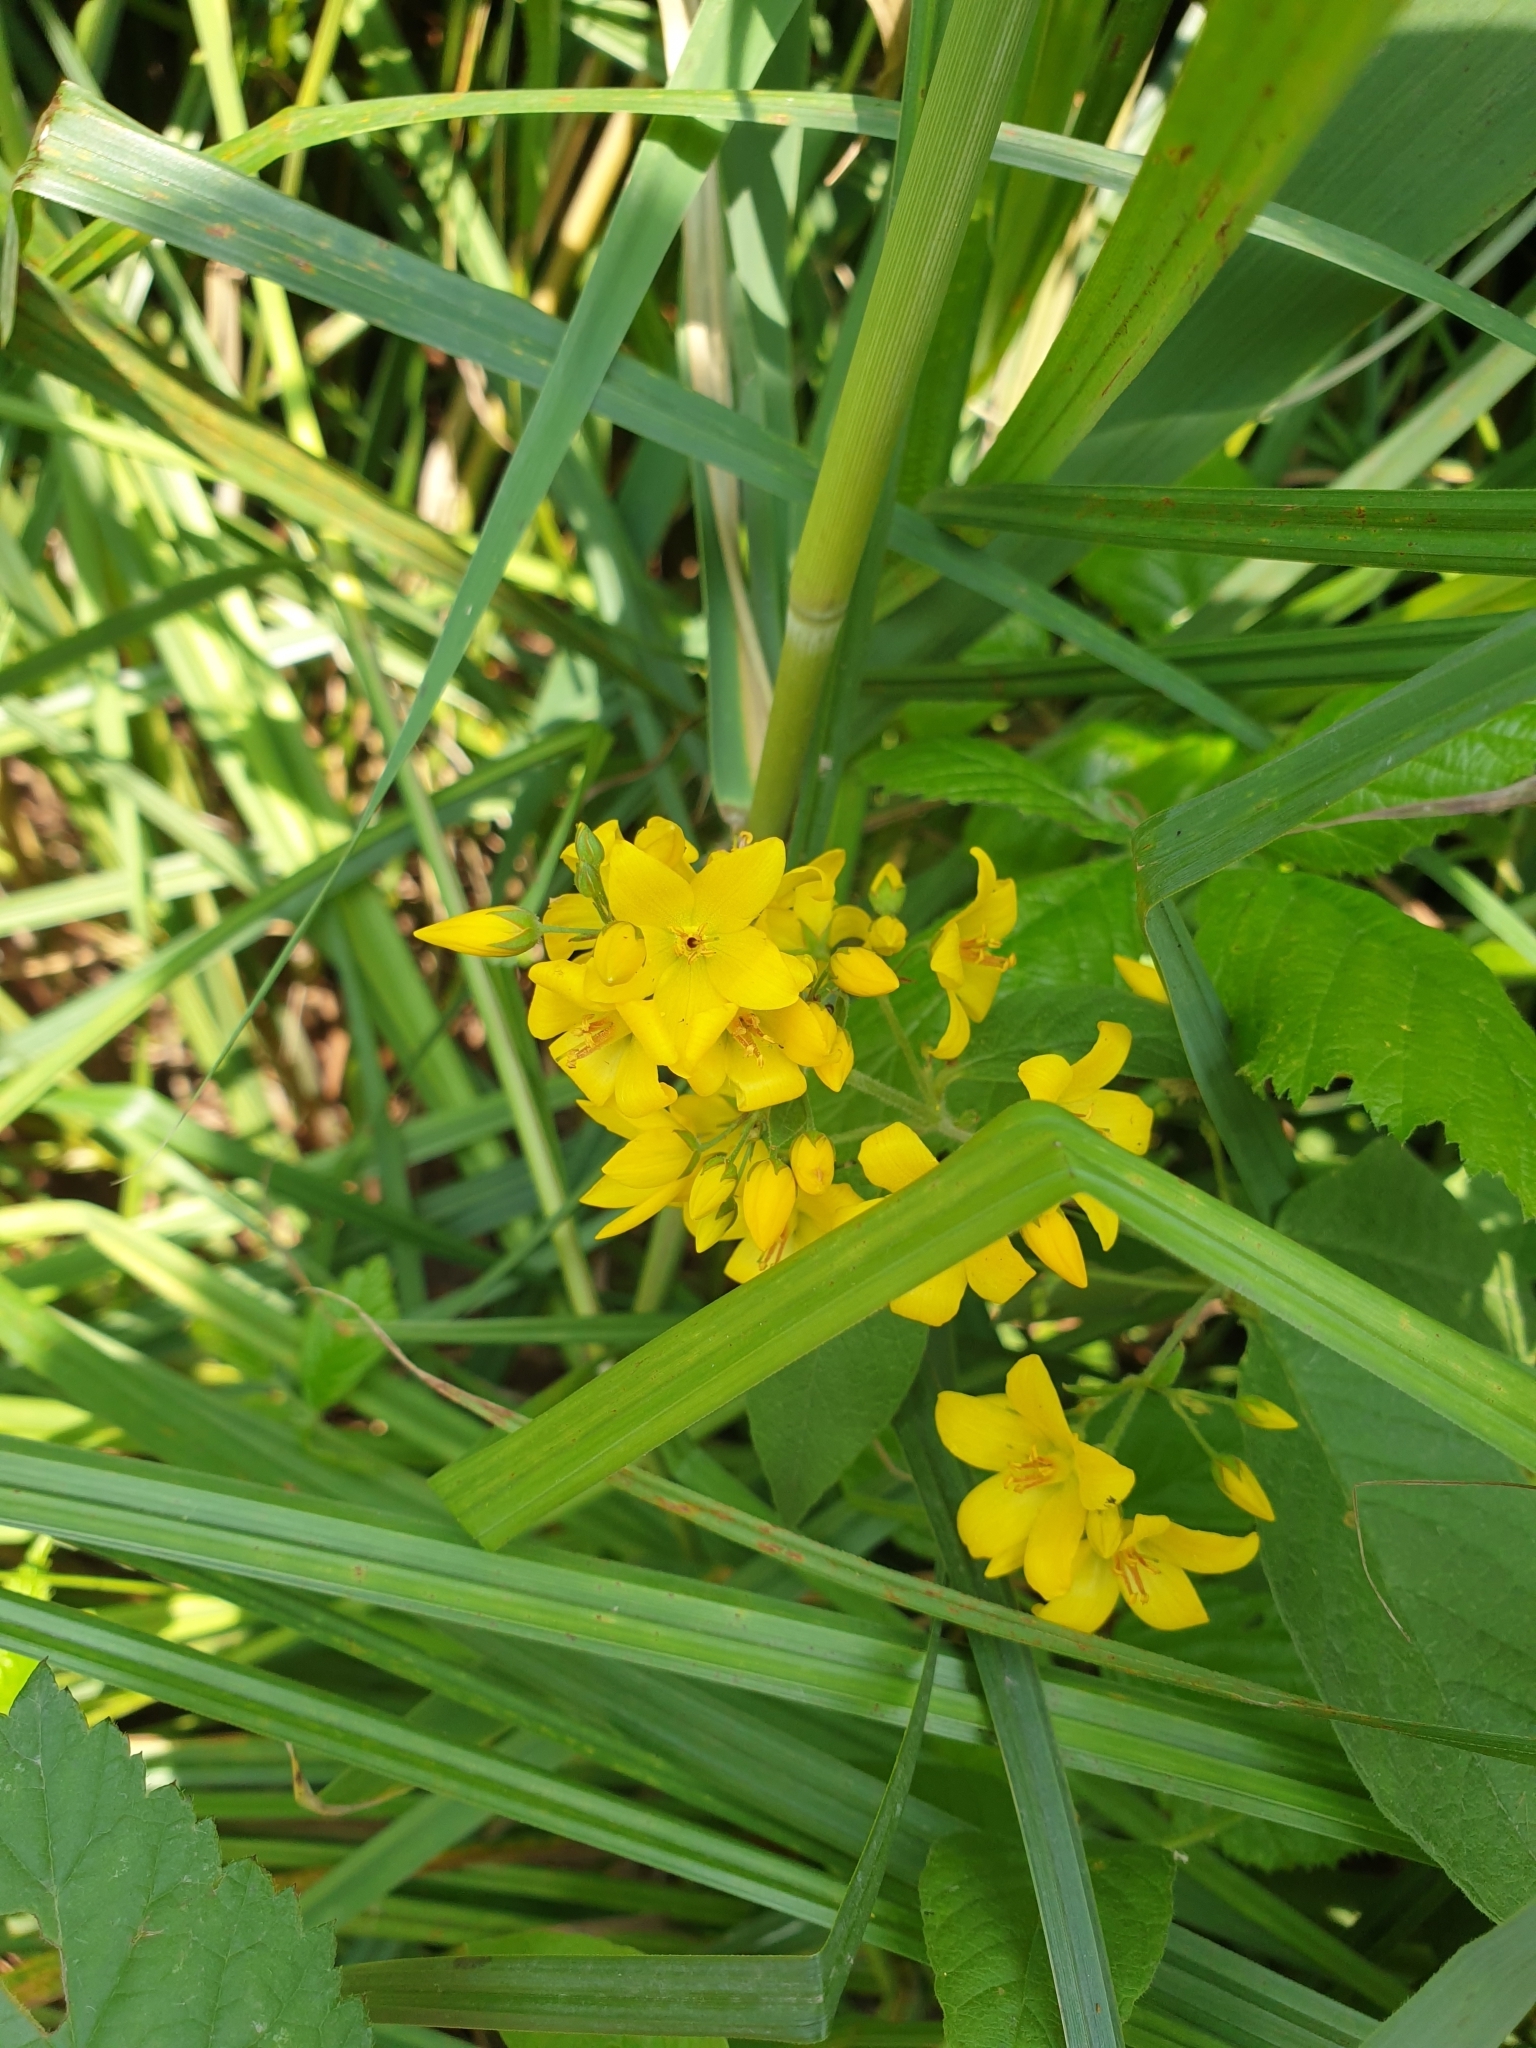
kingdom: Plantae
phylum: Tracheophyta
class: Magnoliopsida
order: Ericales
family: Primulaceae
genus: Lysimachia
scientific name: Lysimachia vulgaris
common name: Yellow loosestrife
